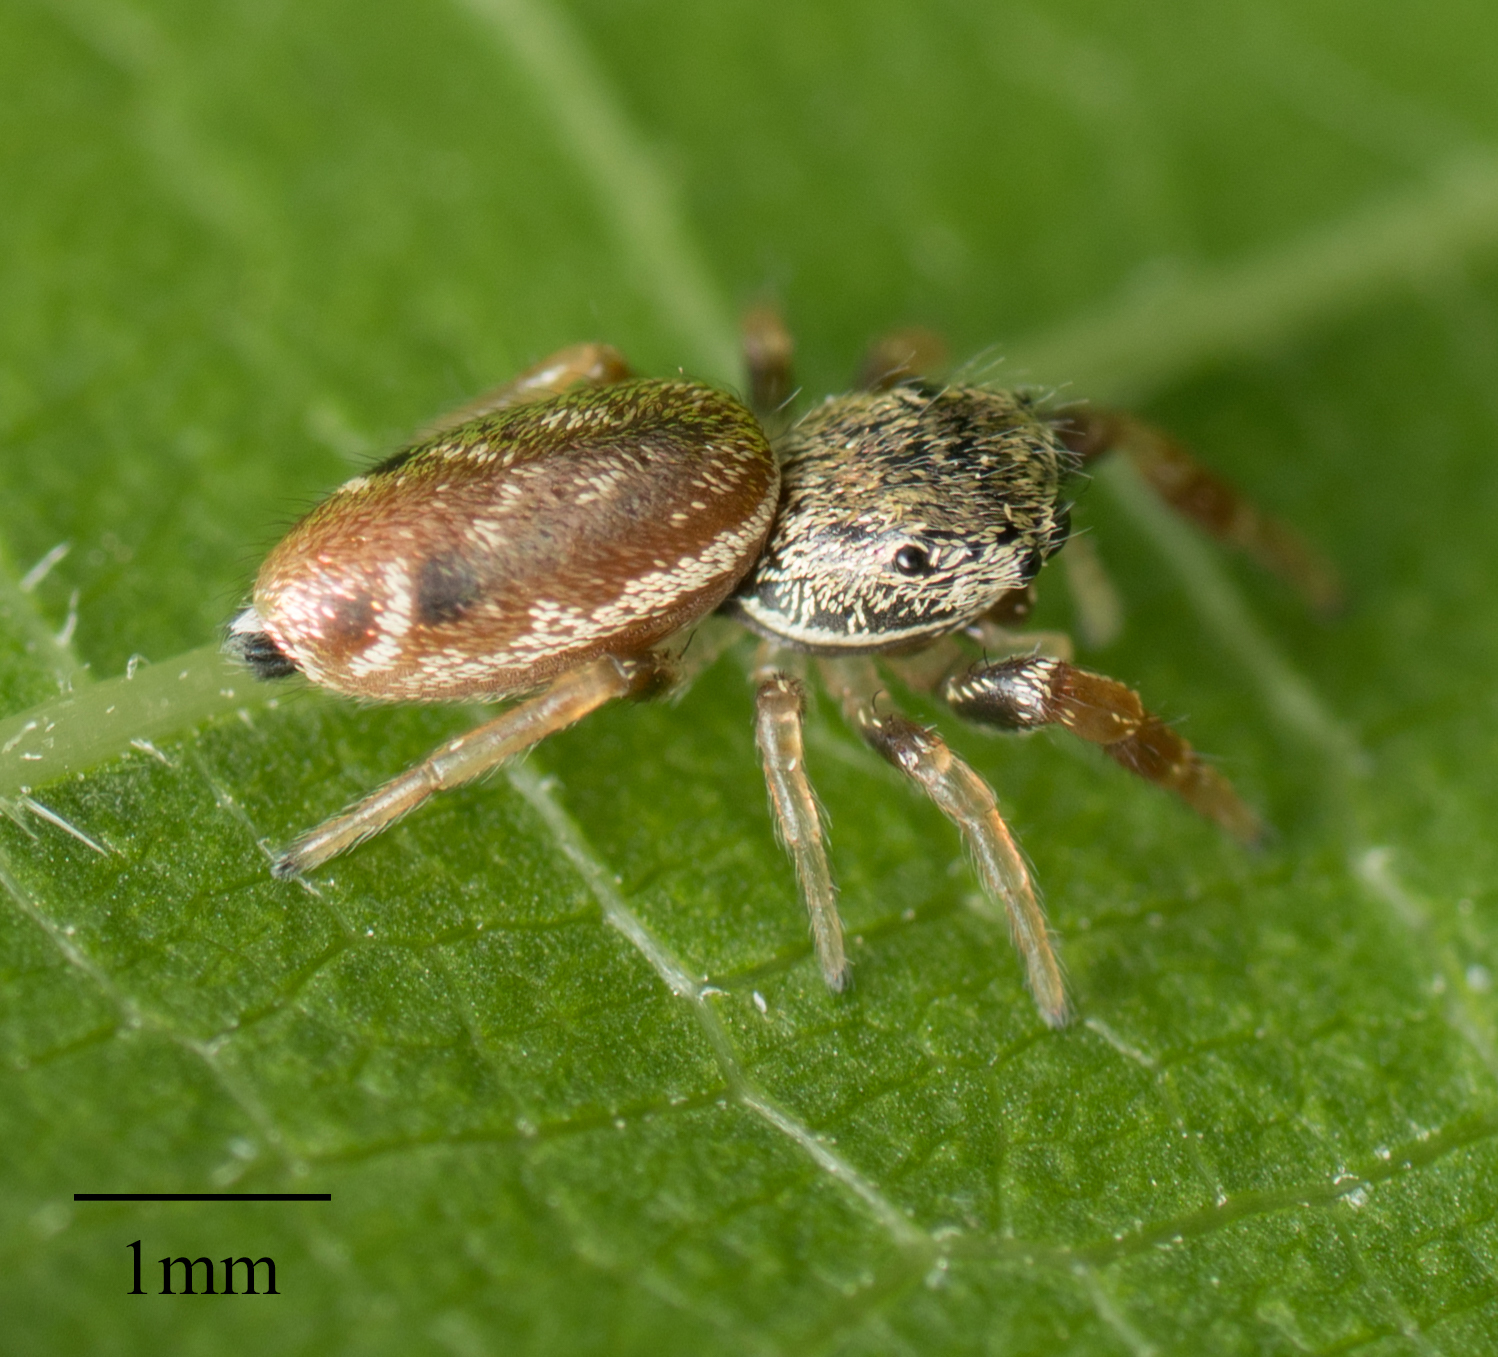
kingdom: Animalia
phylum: Arthropoda
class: Arachnida
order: Araneae
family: Salticidae
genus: Sassacus
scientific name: Sassacus vitis
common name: Jumping spiders
